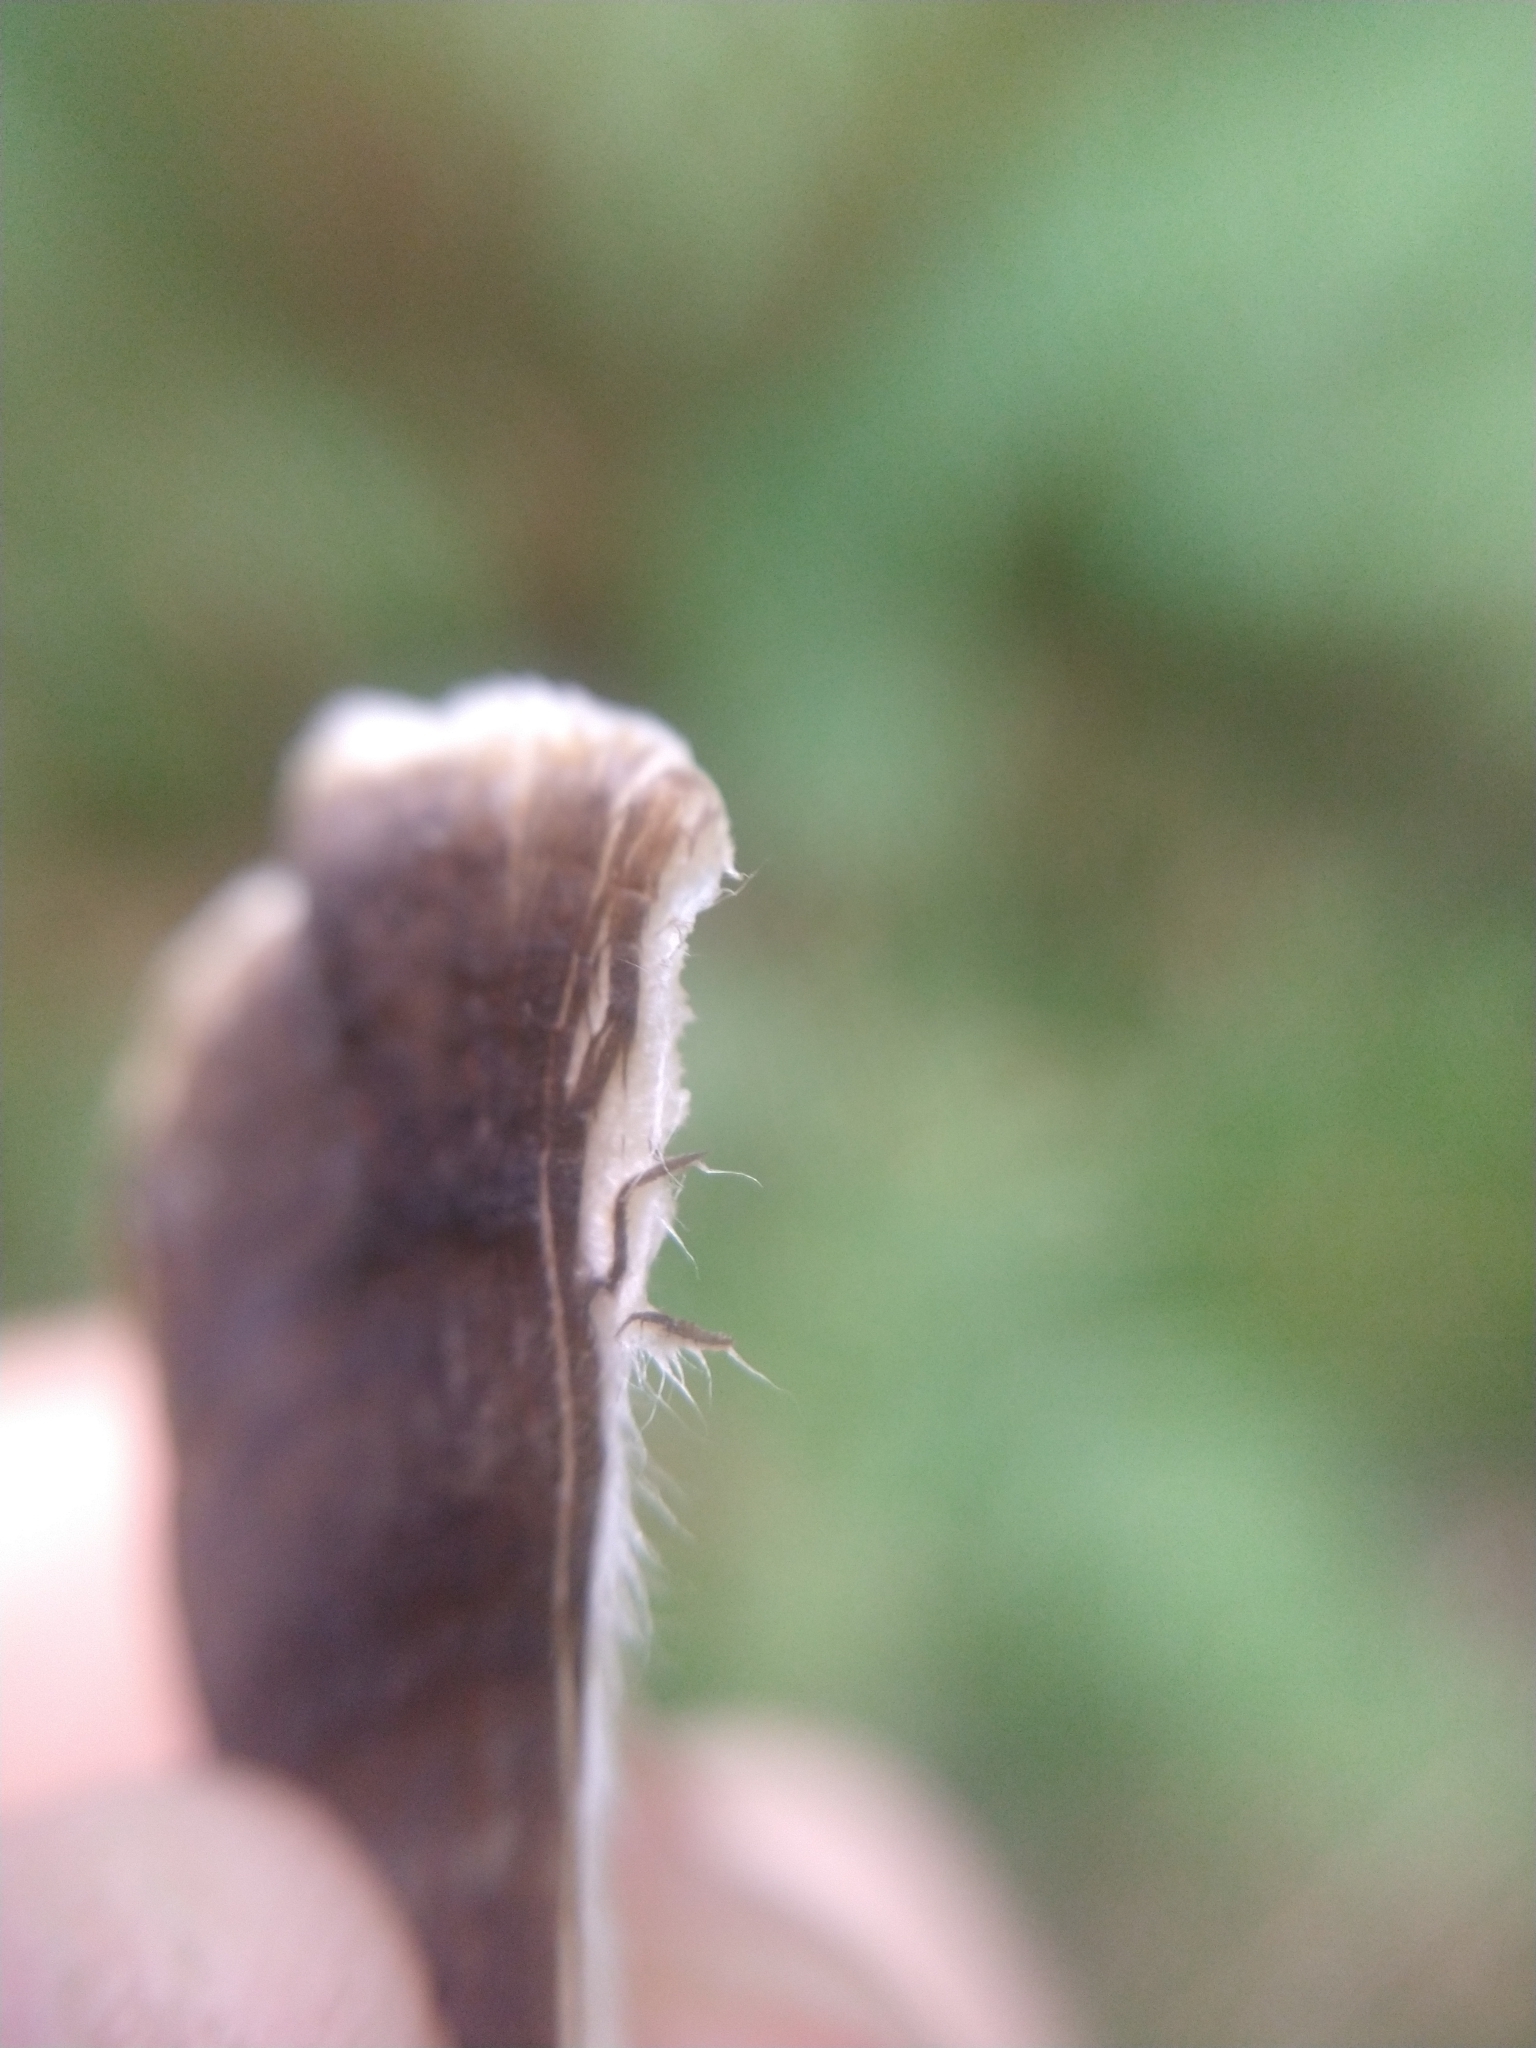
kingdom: Fungi
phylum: Basidiomycota
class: Agaricomycetes
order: Polyporales
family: Polyporaceae
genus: Trametes
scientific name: Trametes versicolor
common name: Turkeytail
